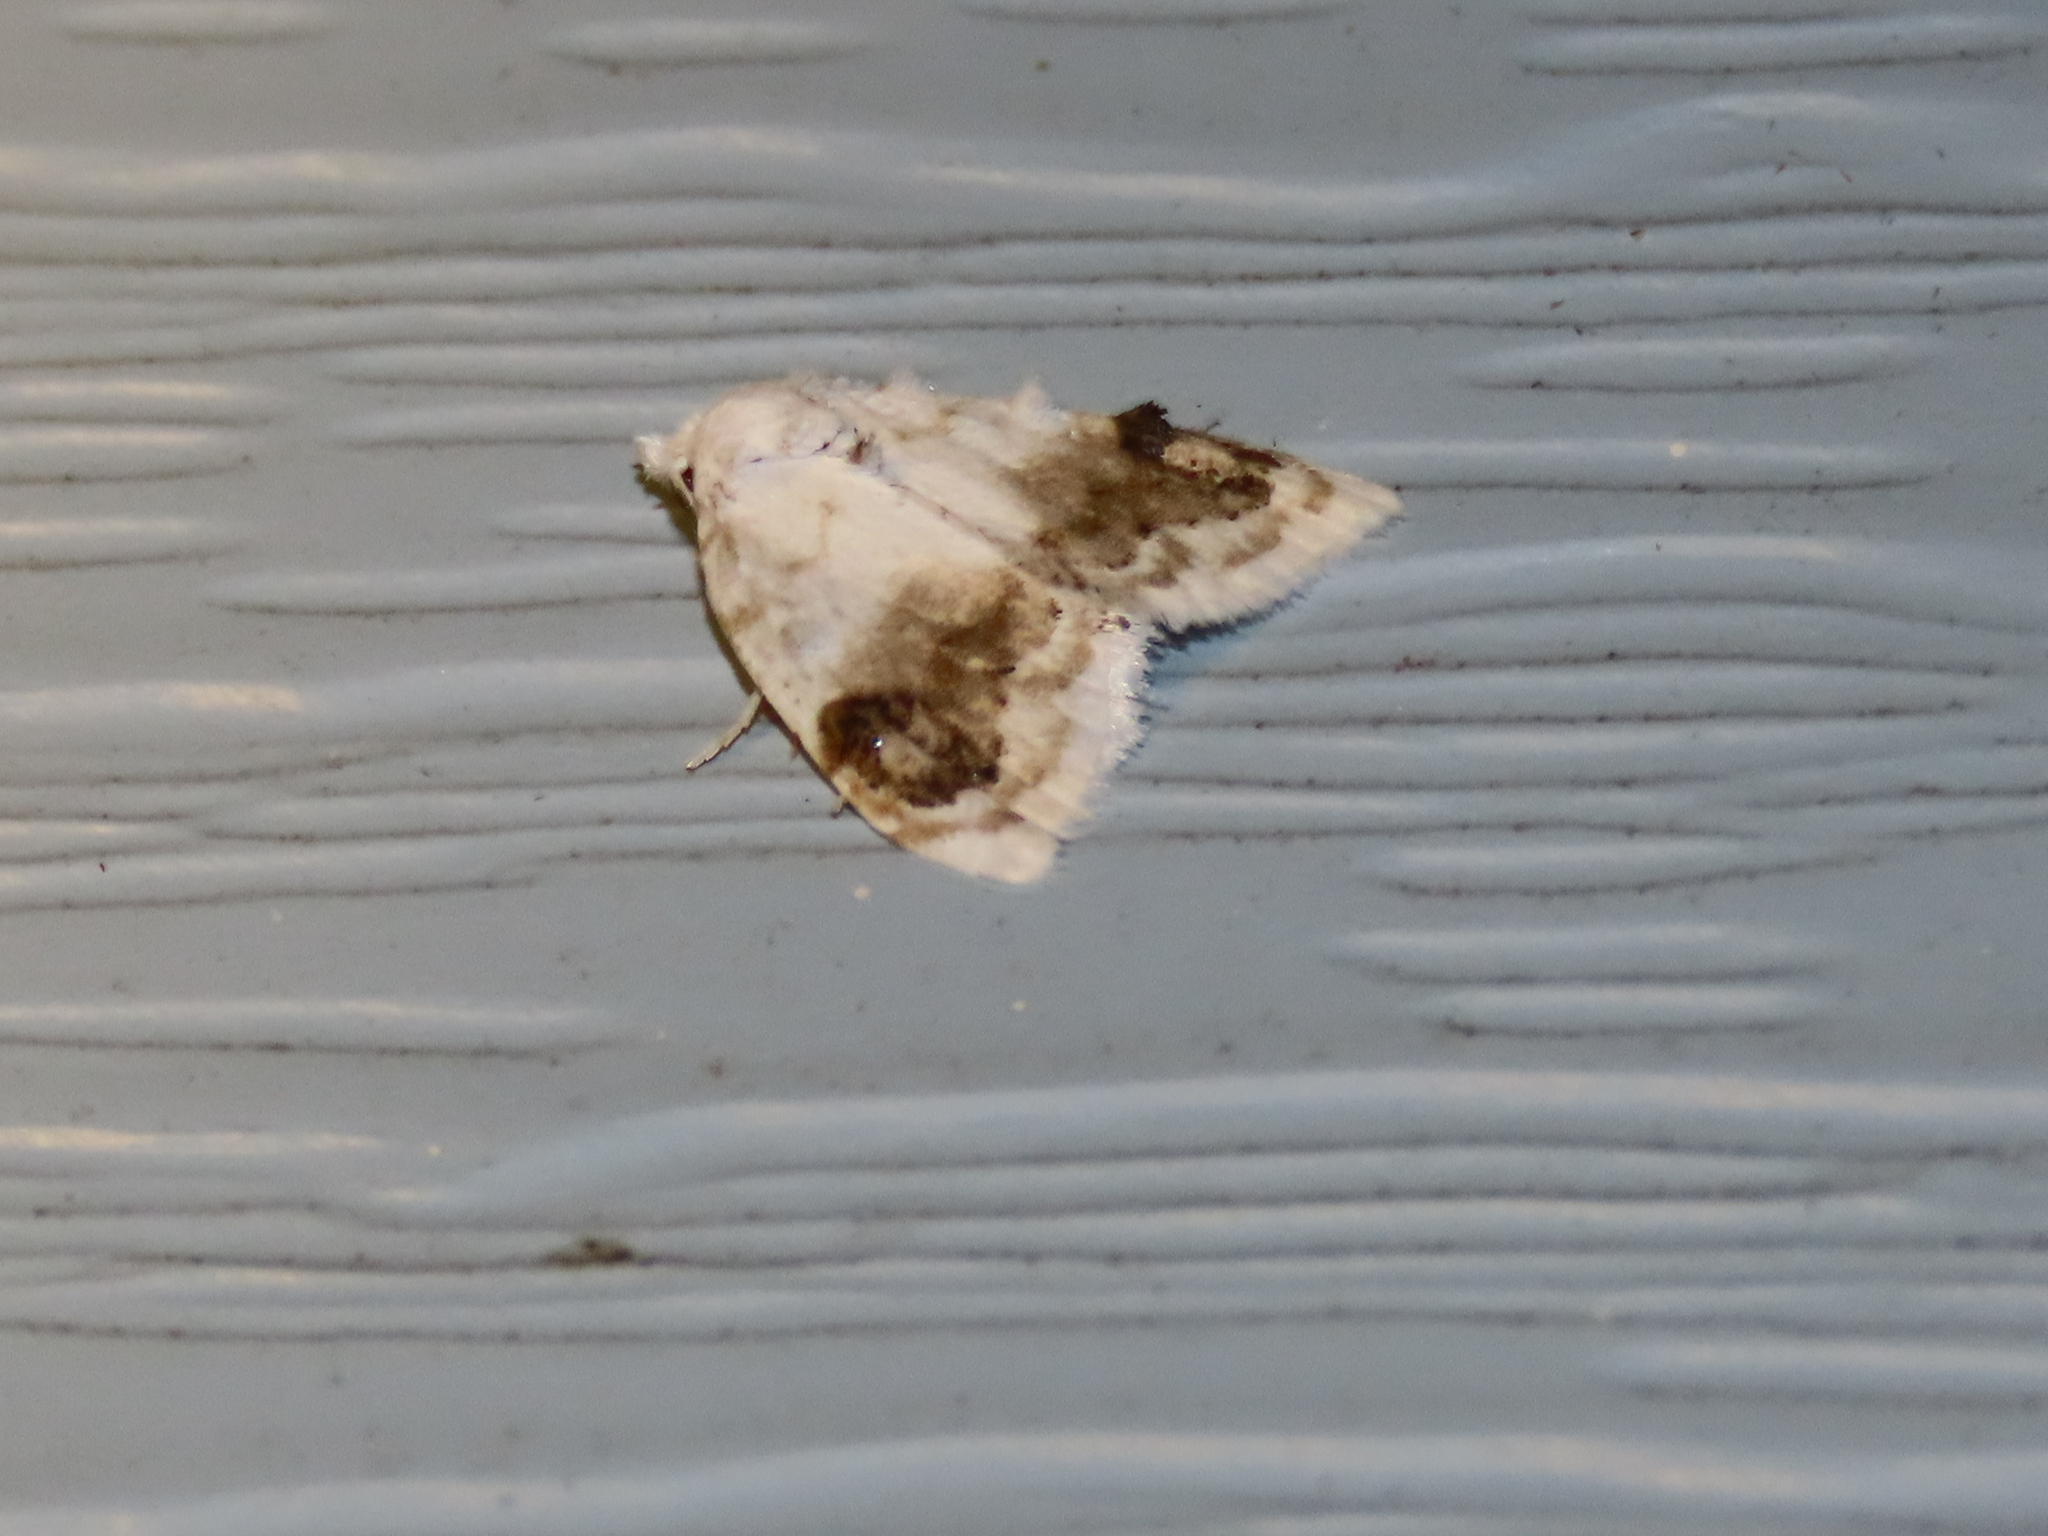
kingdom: Animalia
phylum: Arthropoda
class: Insecta
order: Lepidoptera
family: Nolidae
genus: Nola
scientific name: Nola cilicoides
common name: Blurry-patched nola moth
